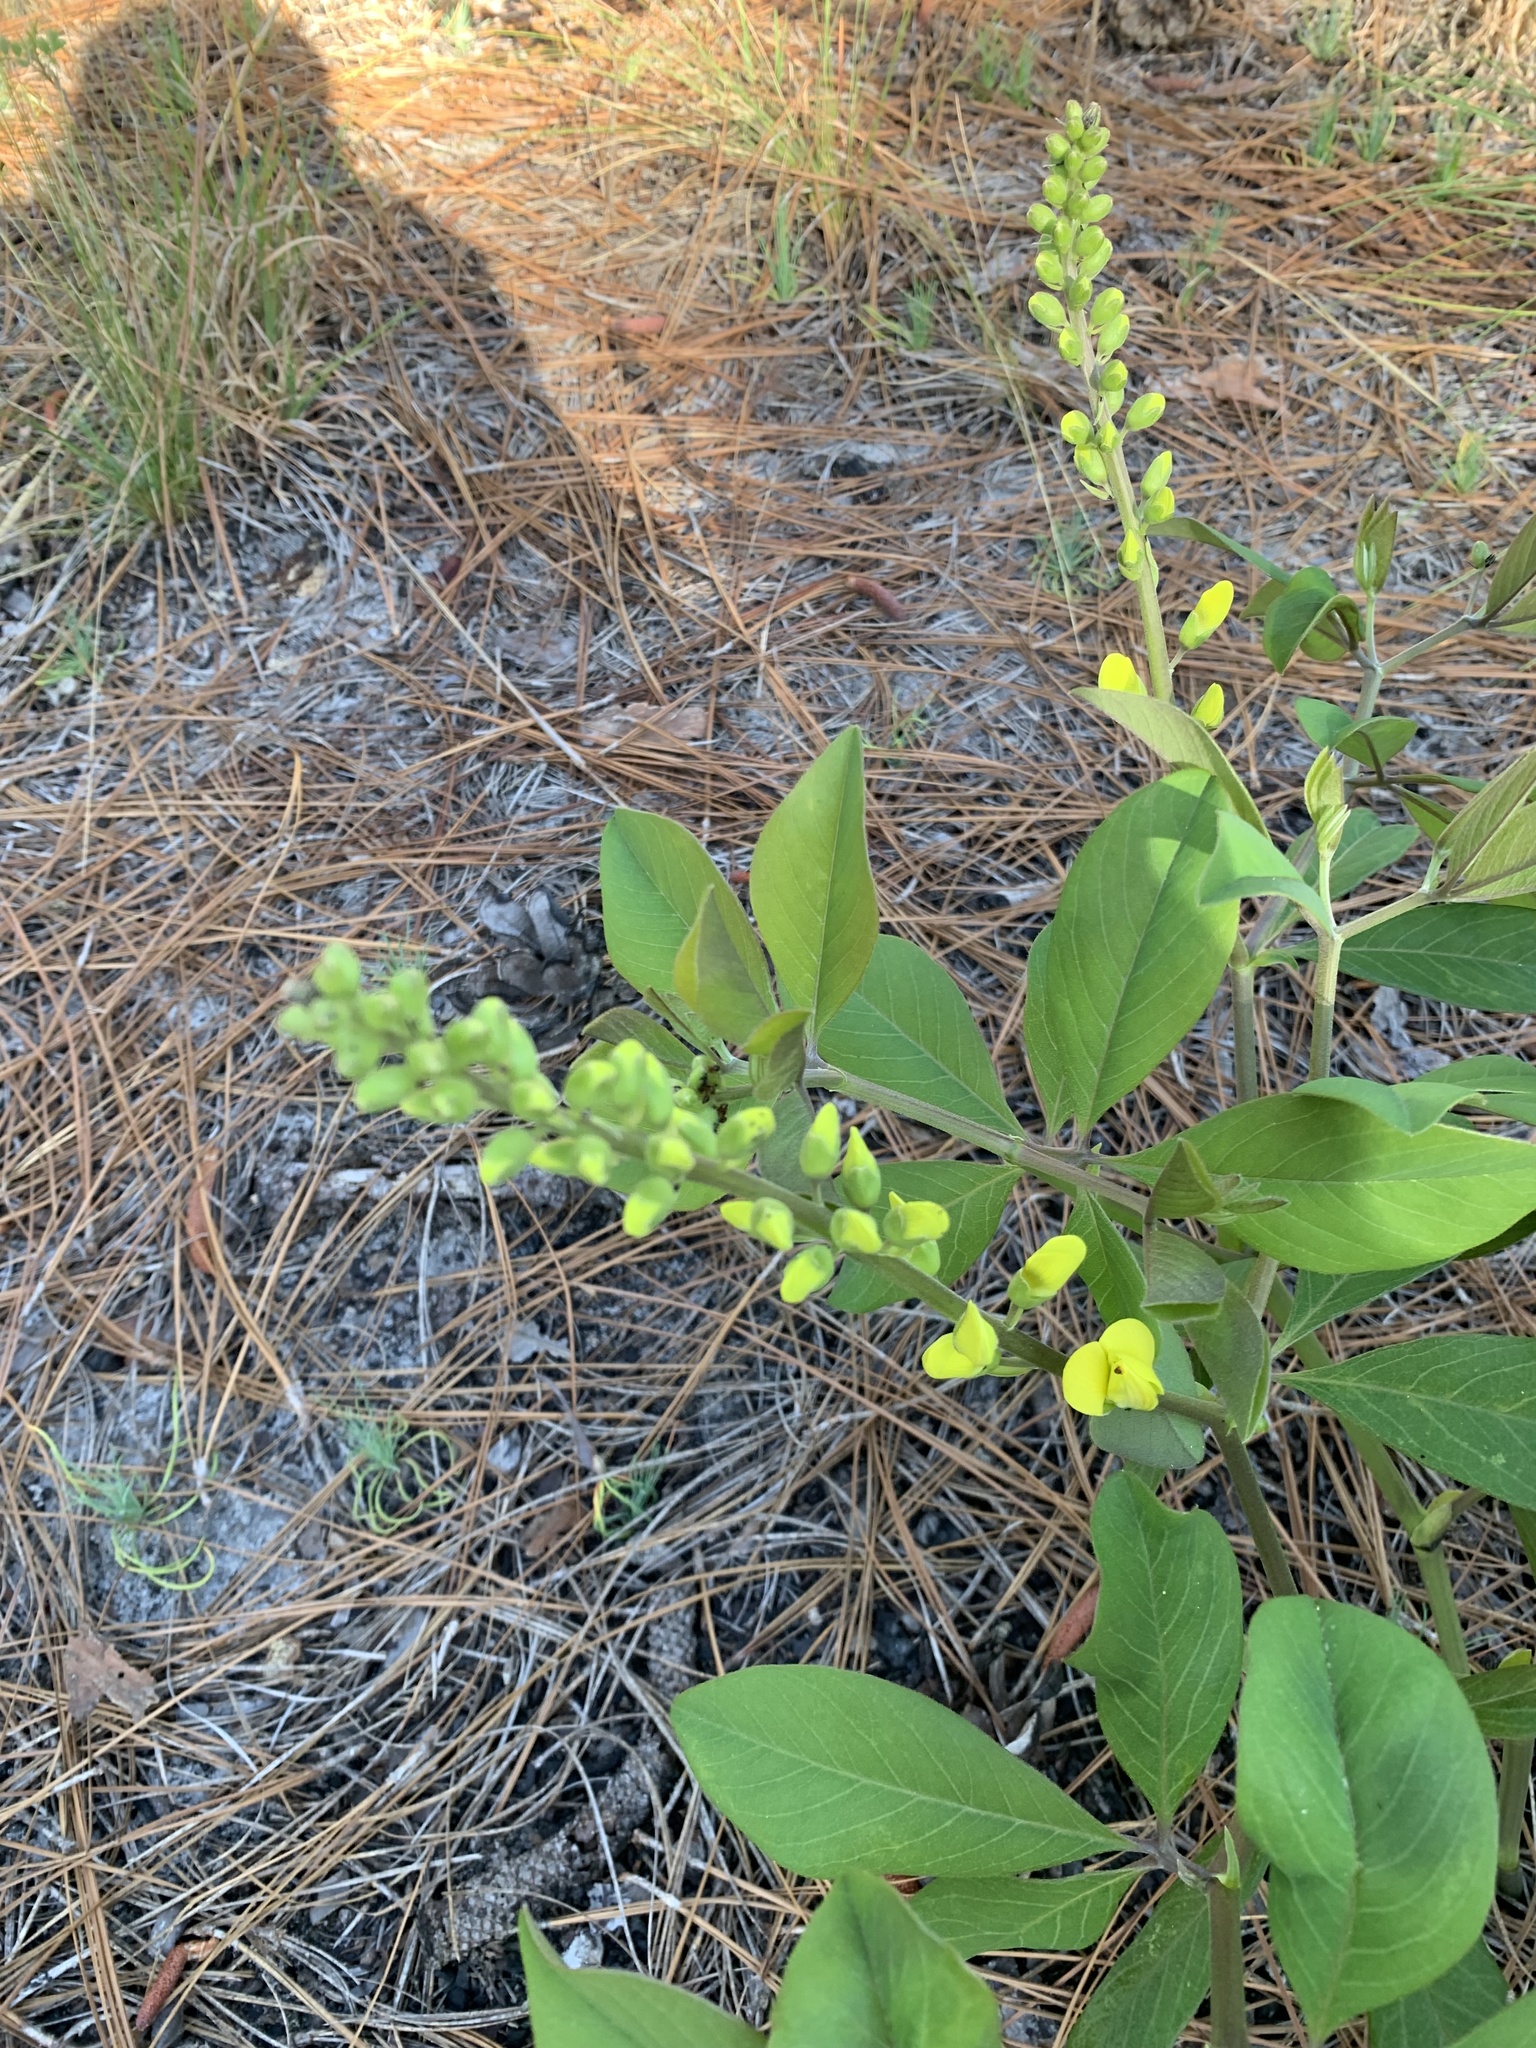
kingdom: Plantae
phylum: Tracheophyta
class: Magnoliopsida
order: Fabales
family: Fabaceae
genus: Baptisia
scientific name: Baptisia cinerea
